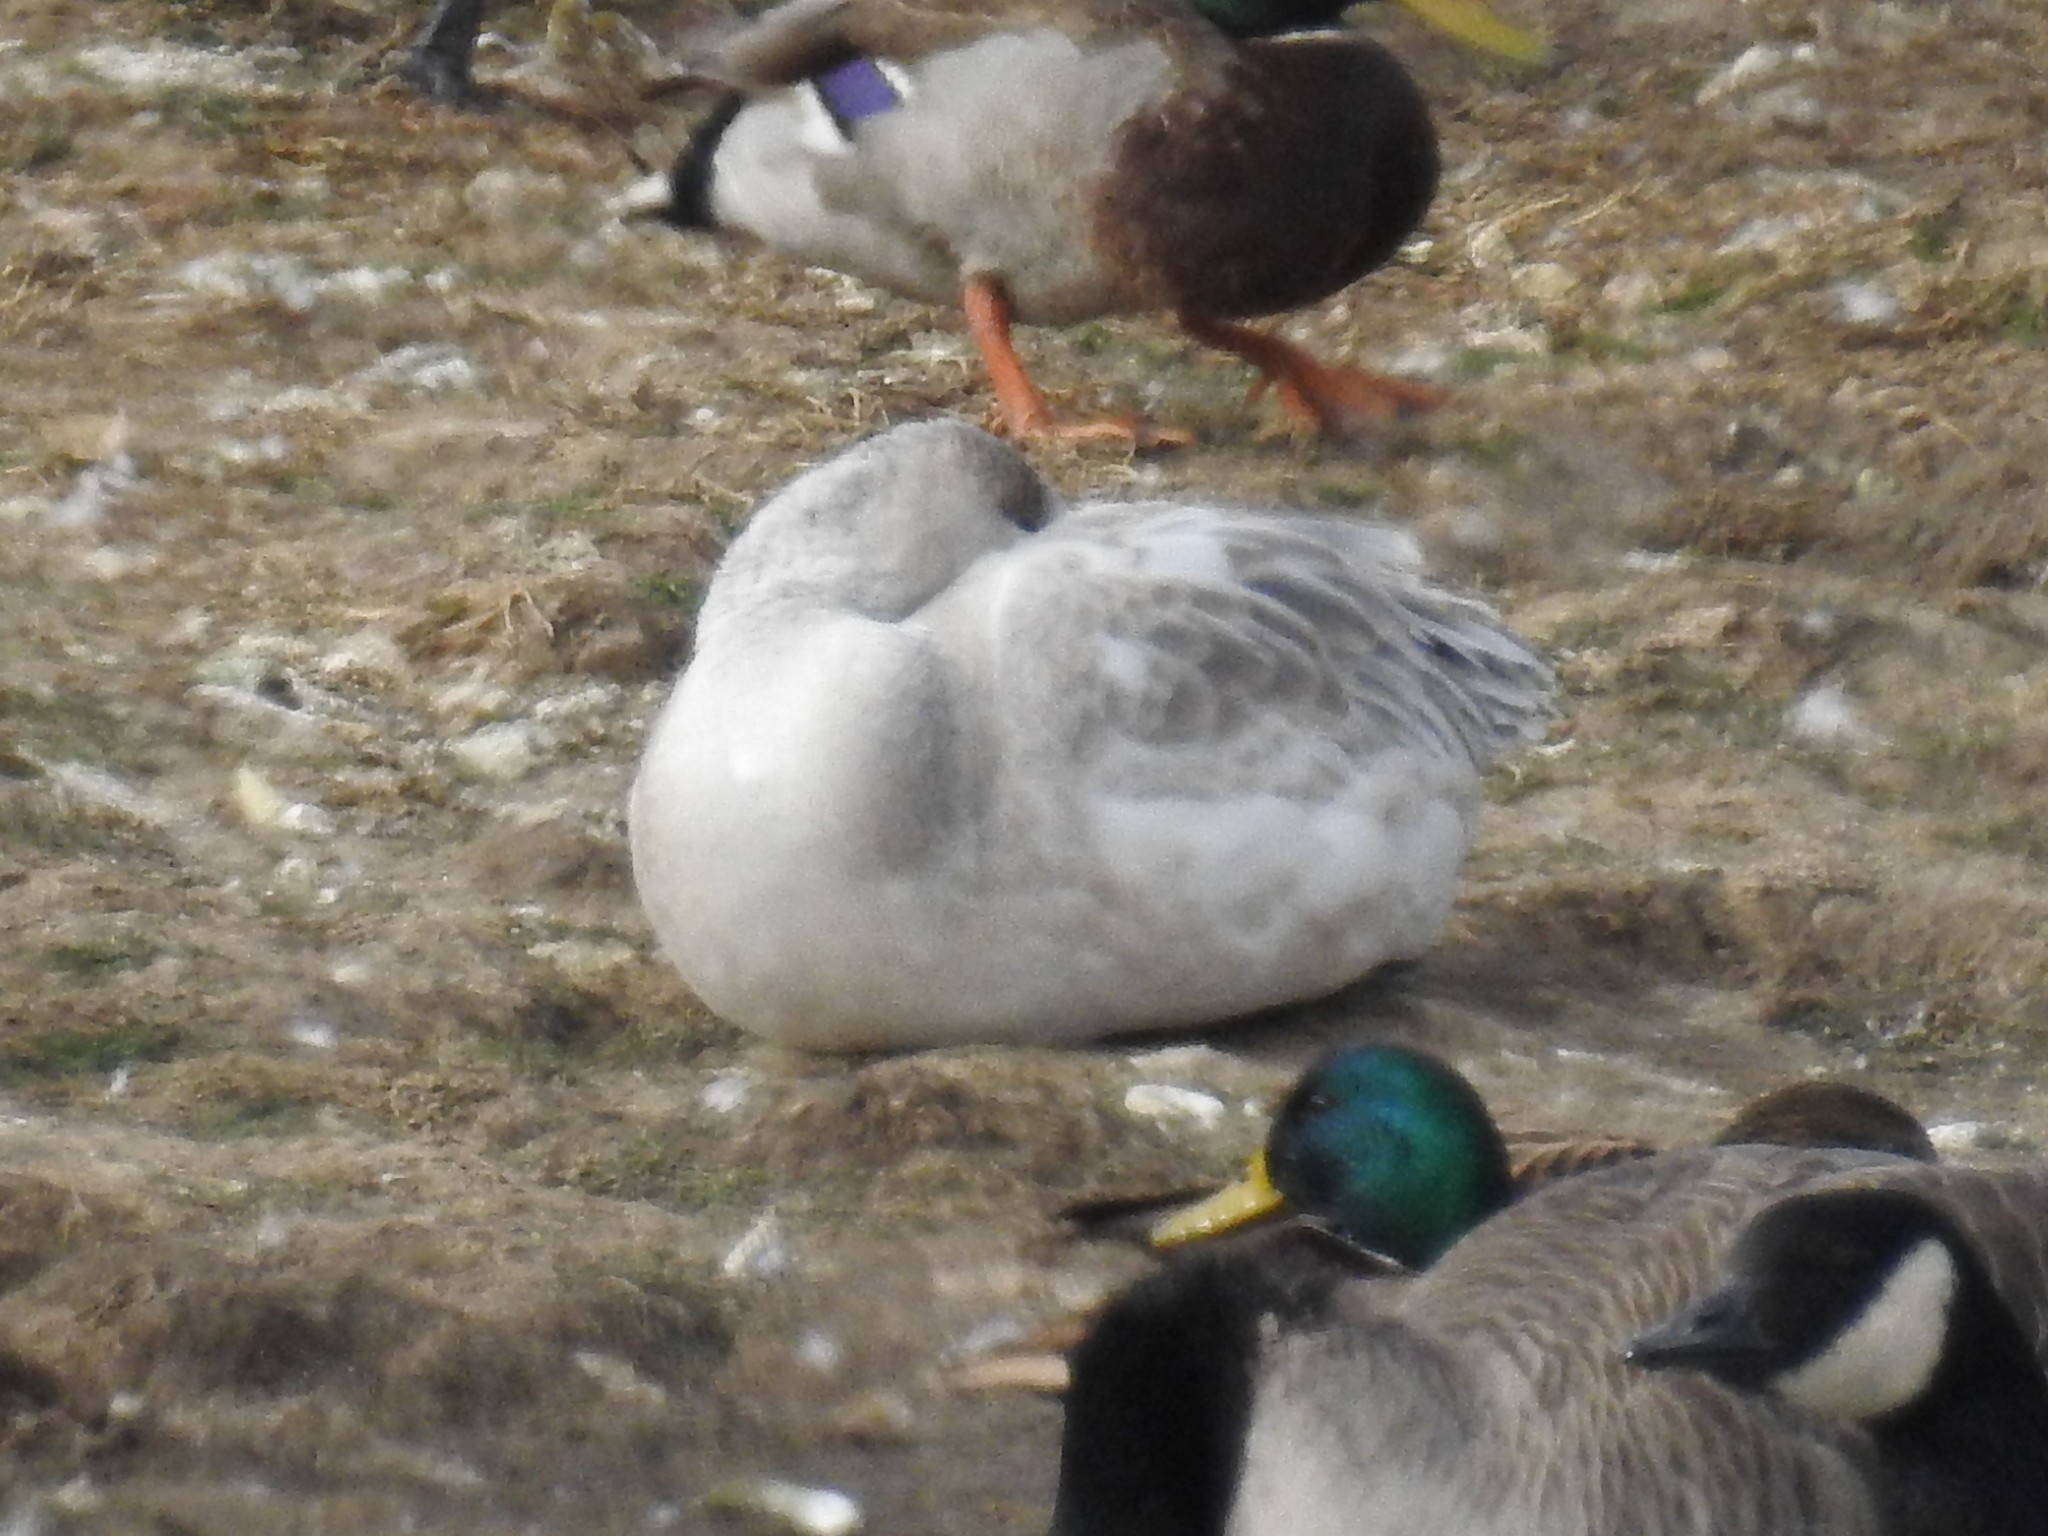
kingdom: Animalia
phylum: Chordata
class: Aves
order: Anseriformes
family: Anatidae
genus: Anas
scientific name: Anas platyrhynchos
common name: Mallard
